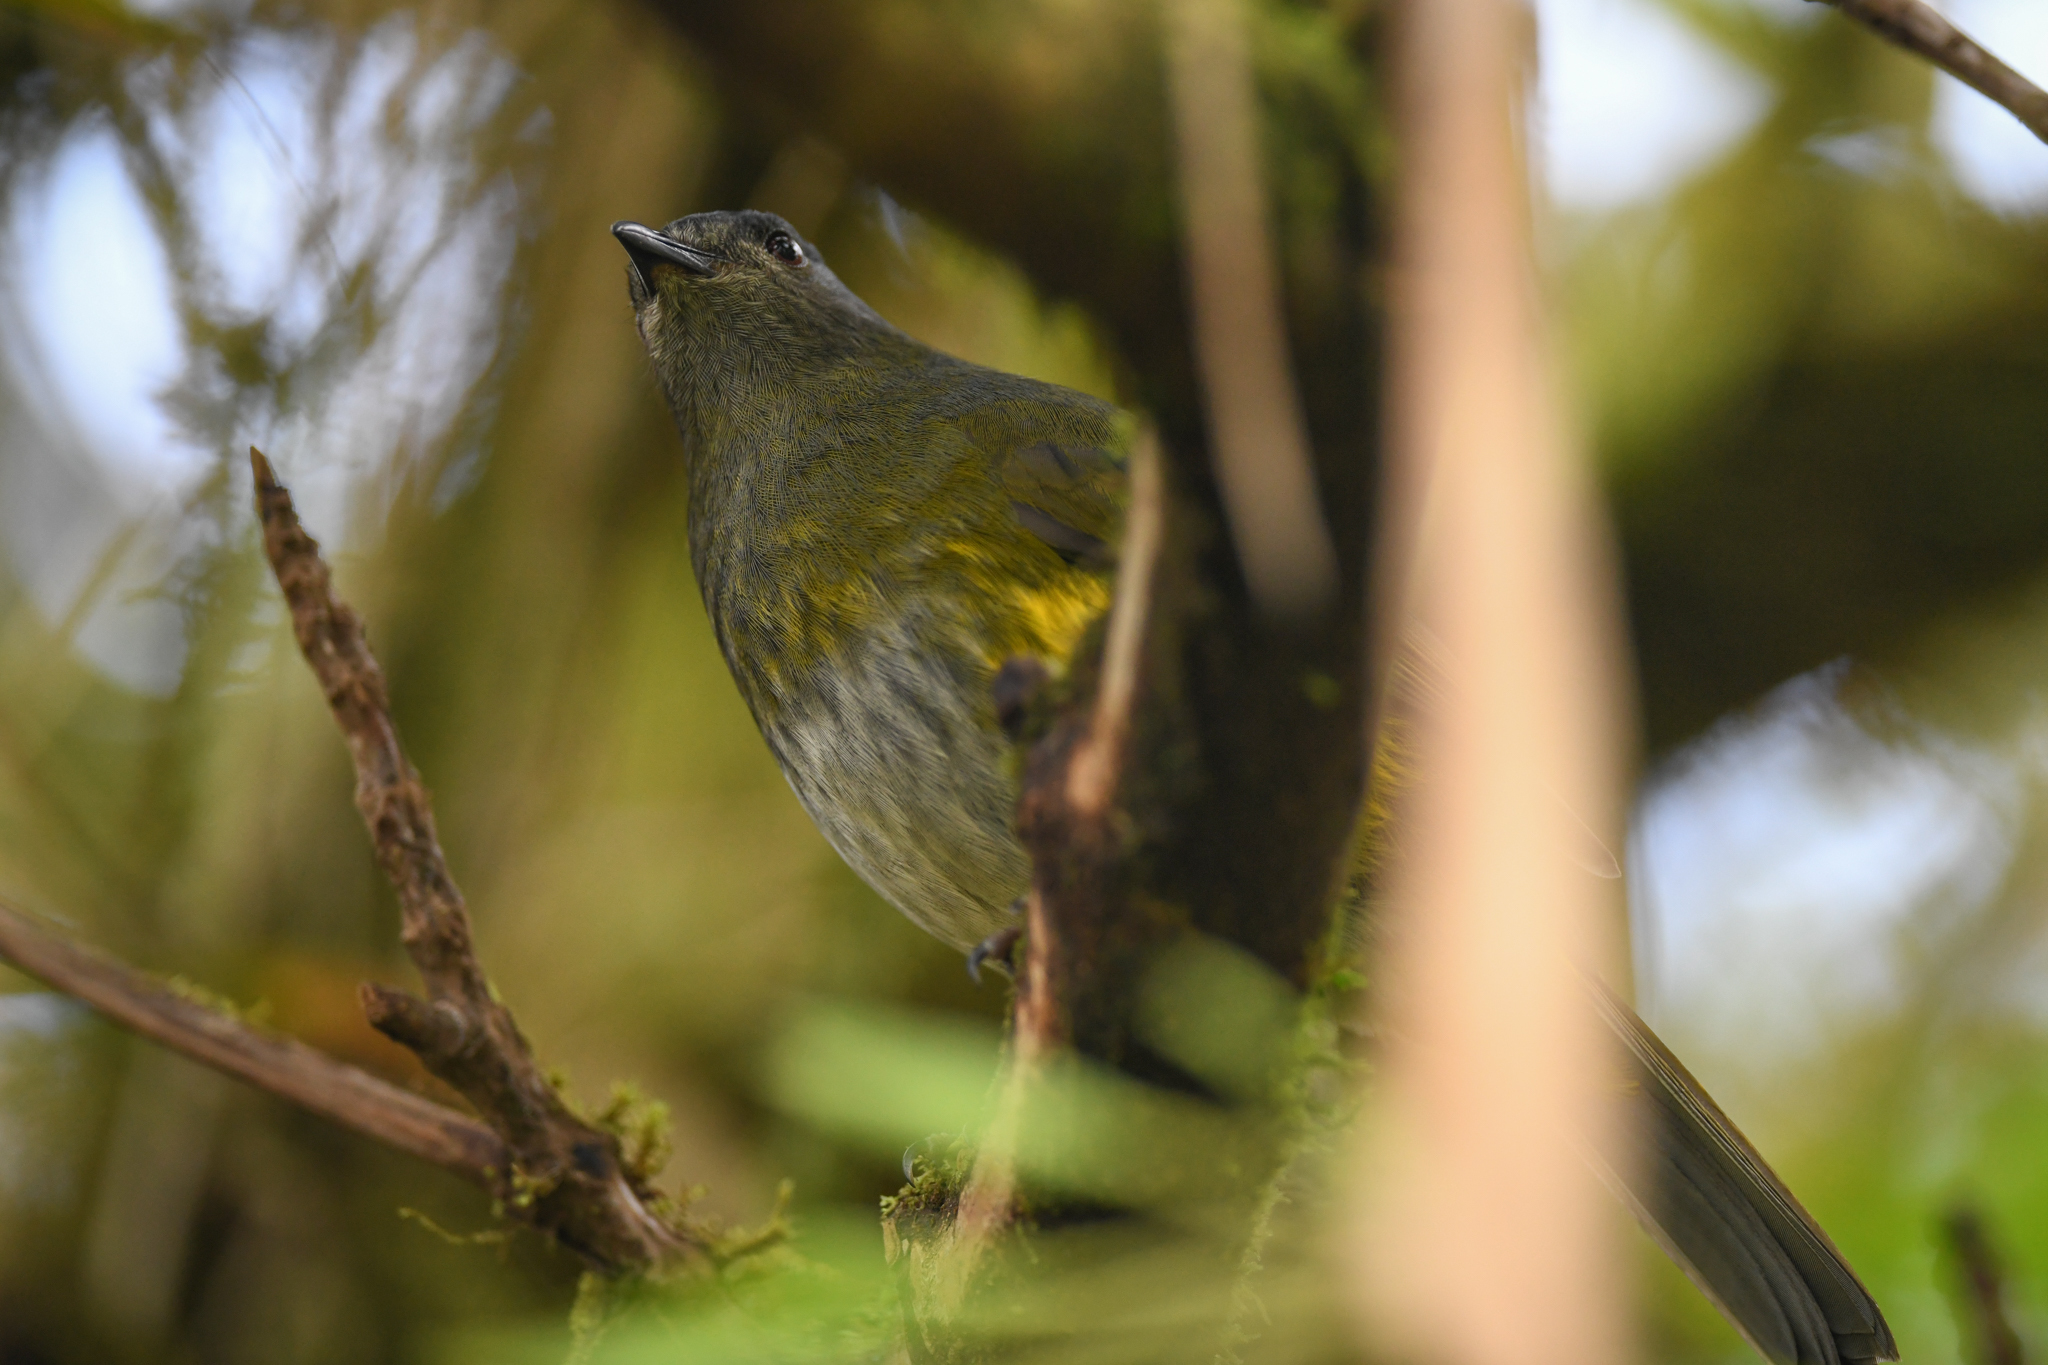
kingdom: Animalia
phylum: Chordata
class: Aves
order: Passeriformes
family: Ptilogonatidae
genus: Phainoptila
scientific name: Phainoptila melanoxantha
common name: Black-and-yellow phainoptila
